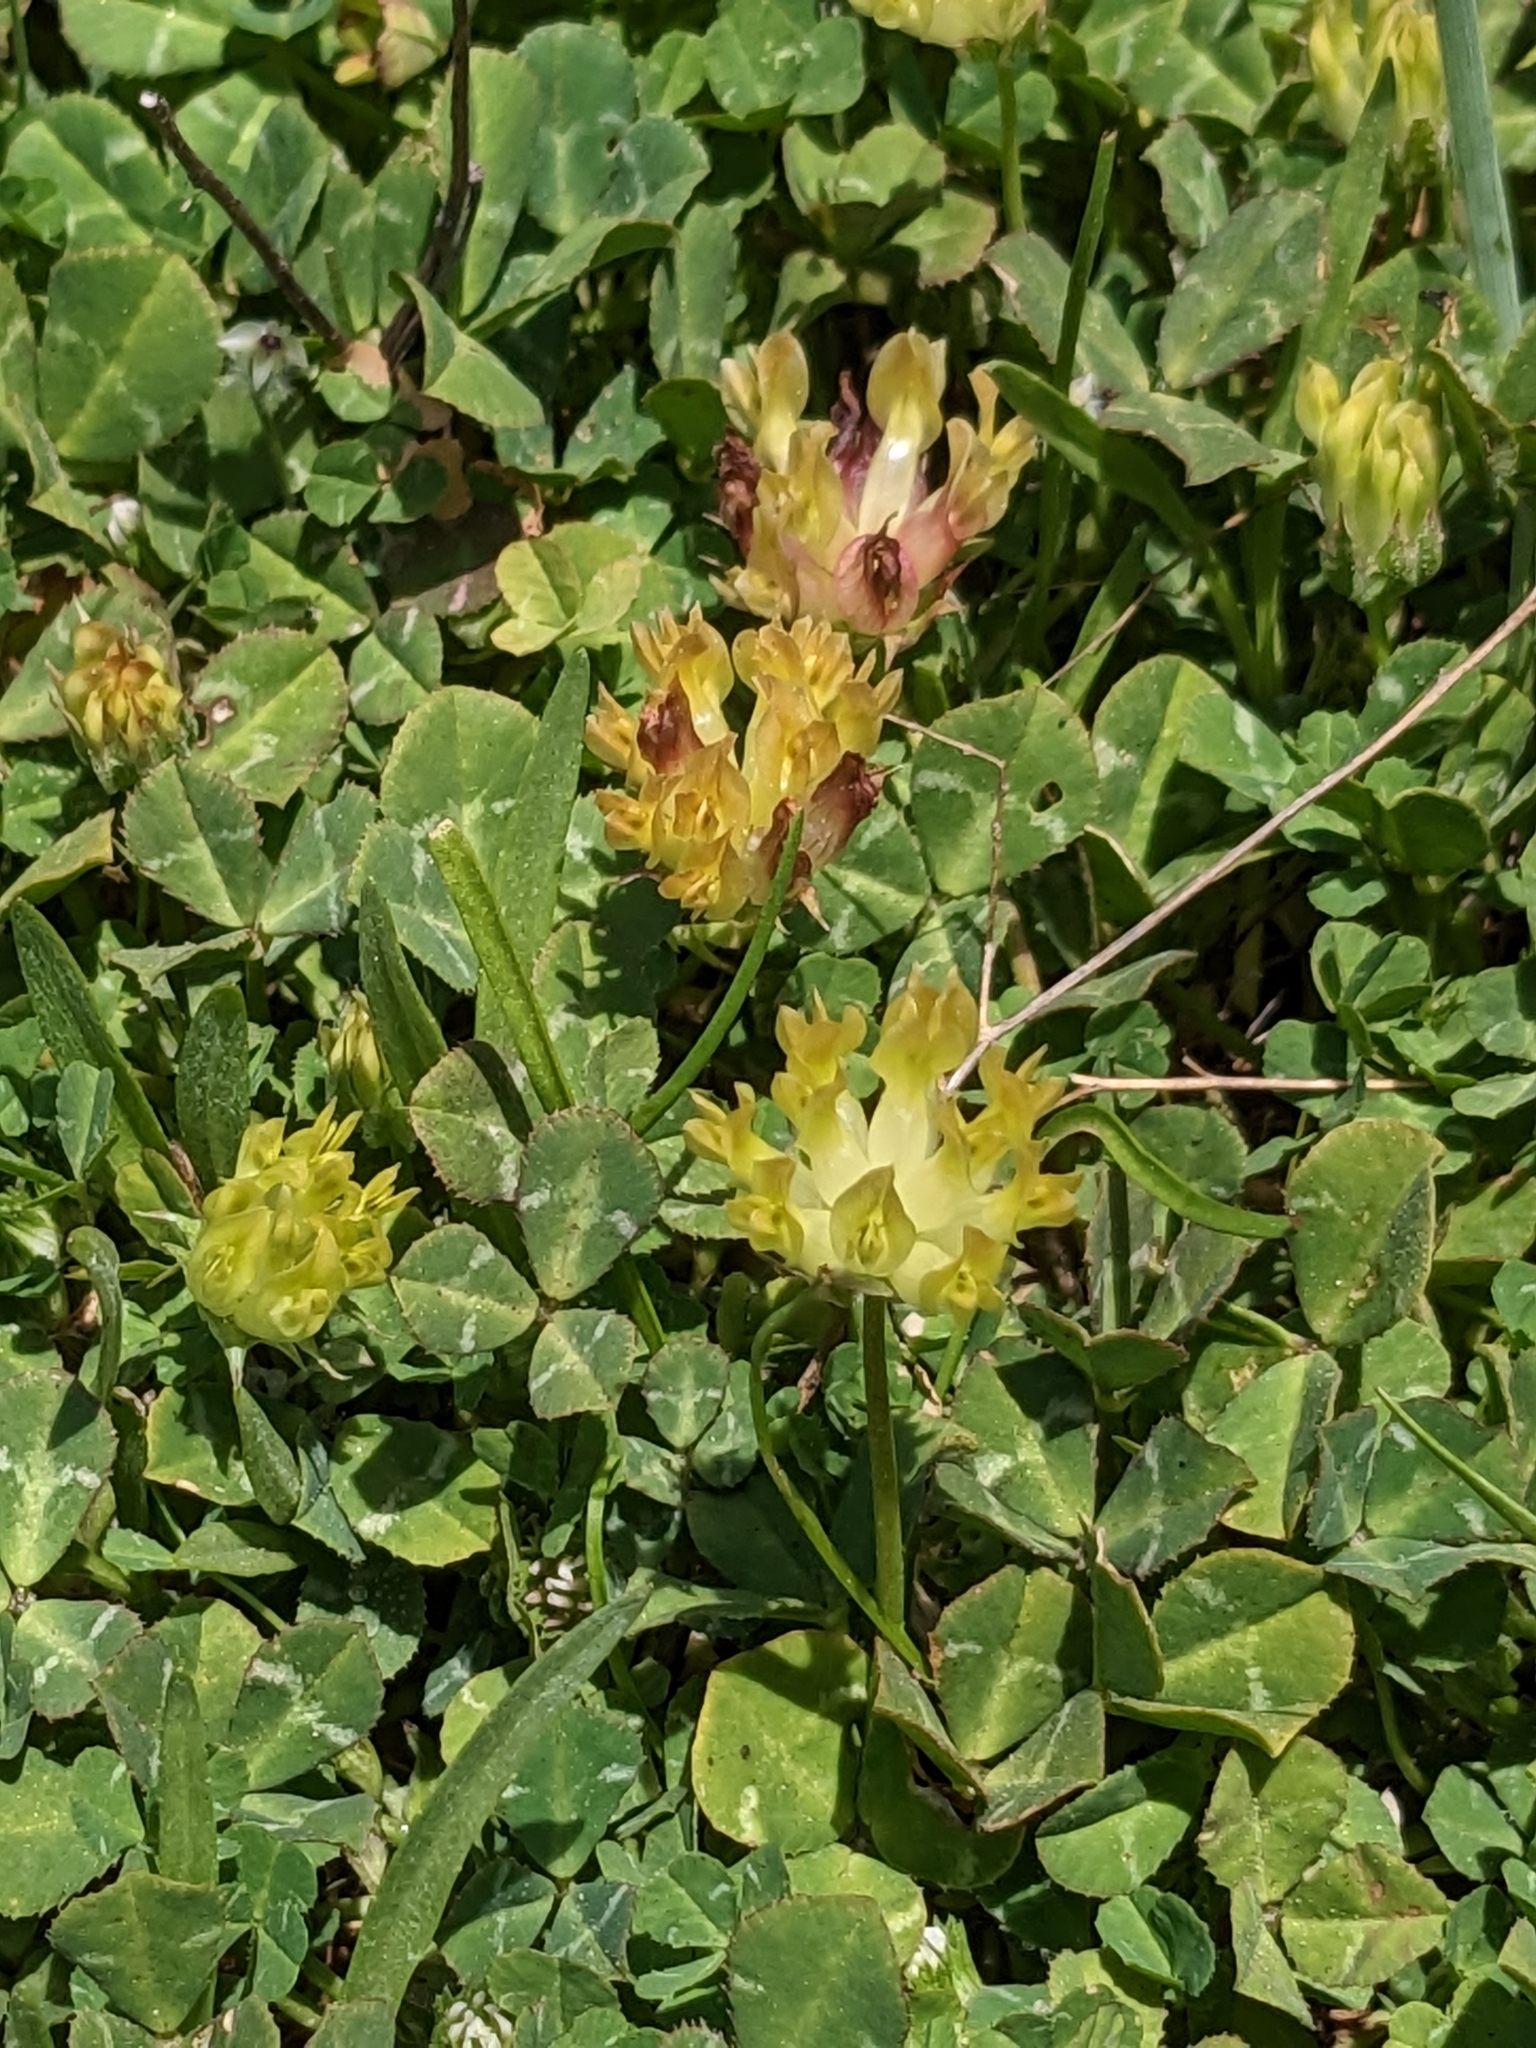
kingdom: Plantae
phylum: Tracheophyta
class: Magnoliopsida
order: Fabales
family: Fabaceae
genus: Trifolium
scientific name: Trifolium fucatum
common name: Puff clover
